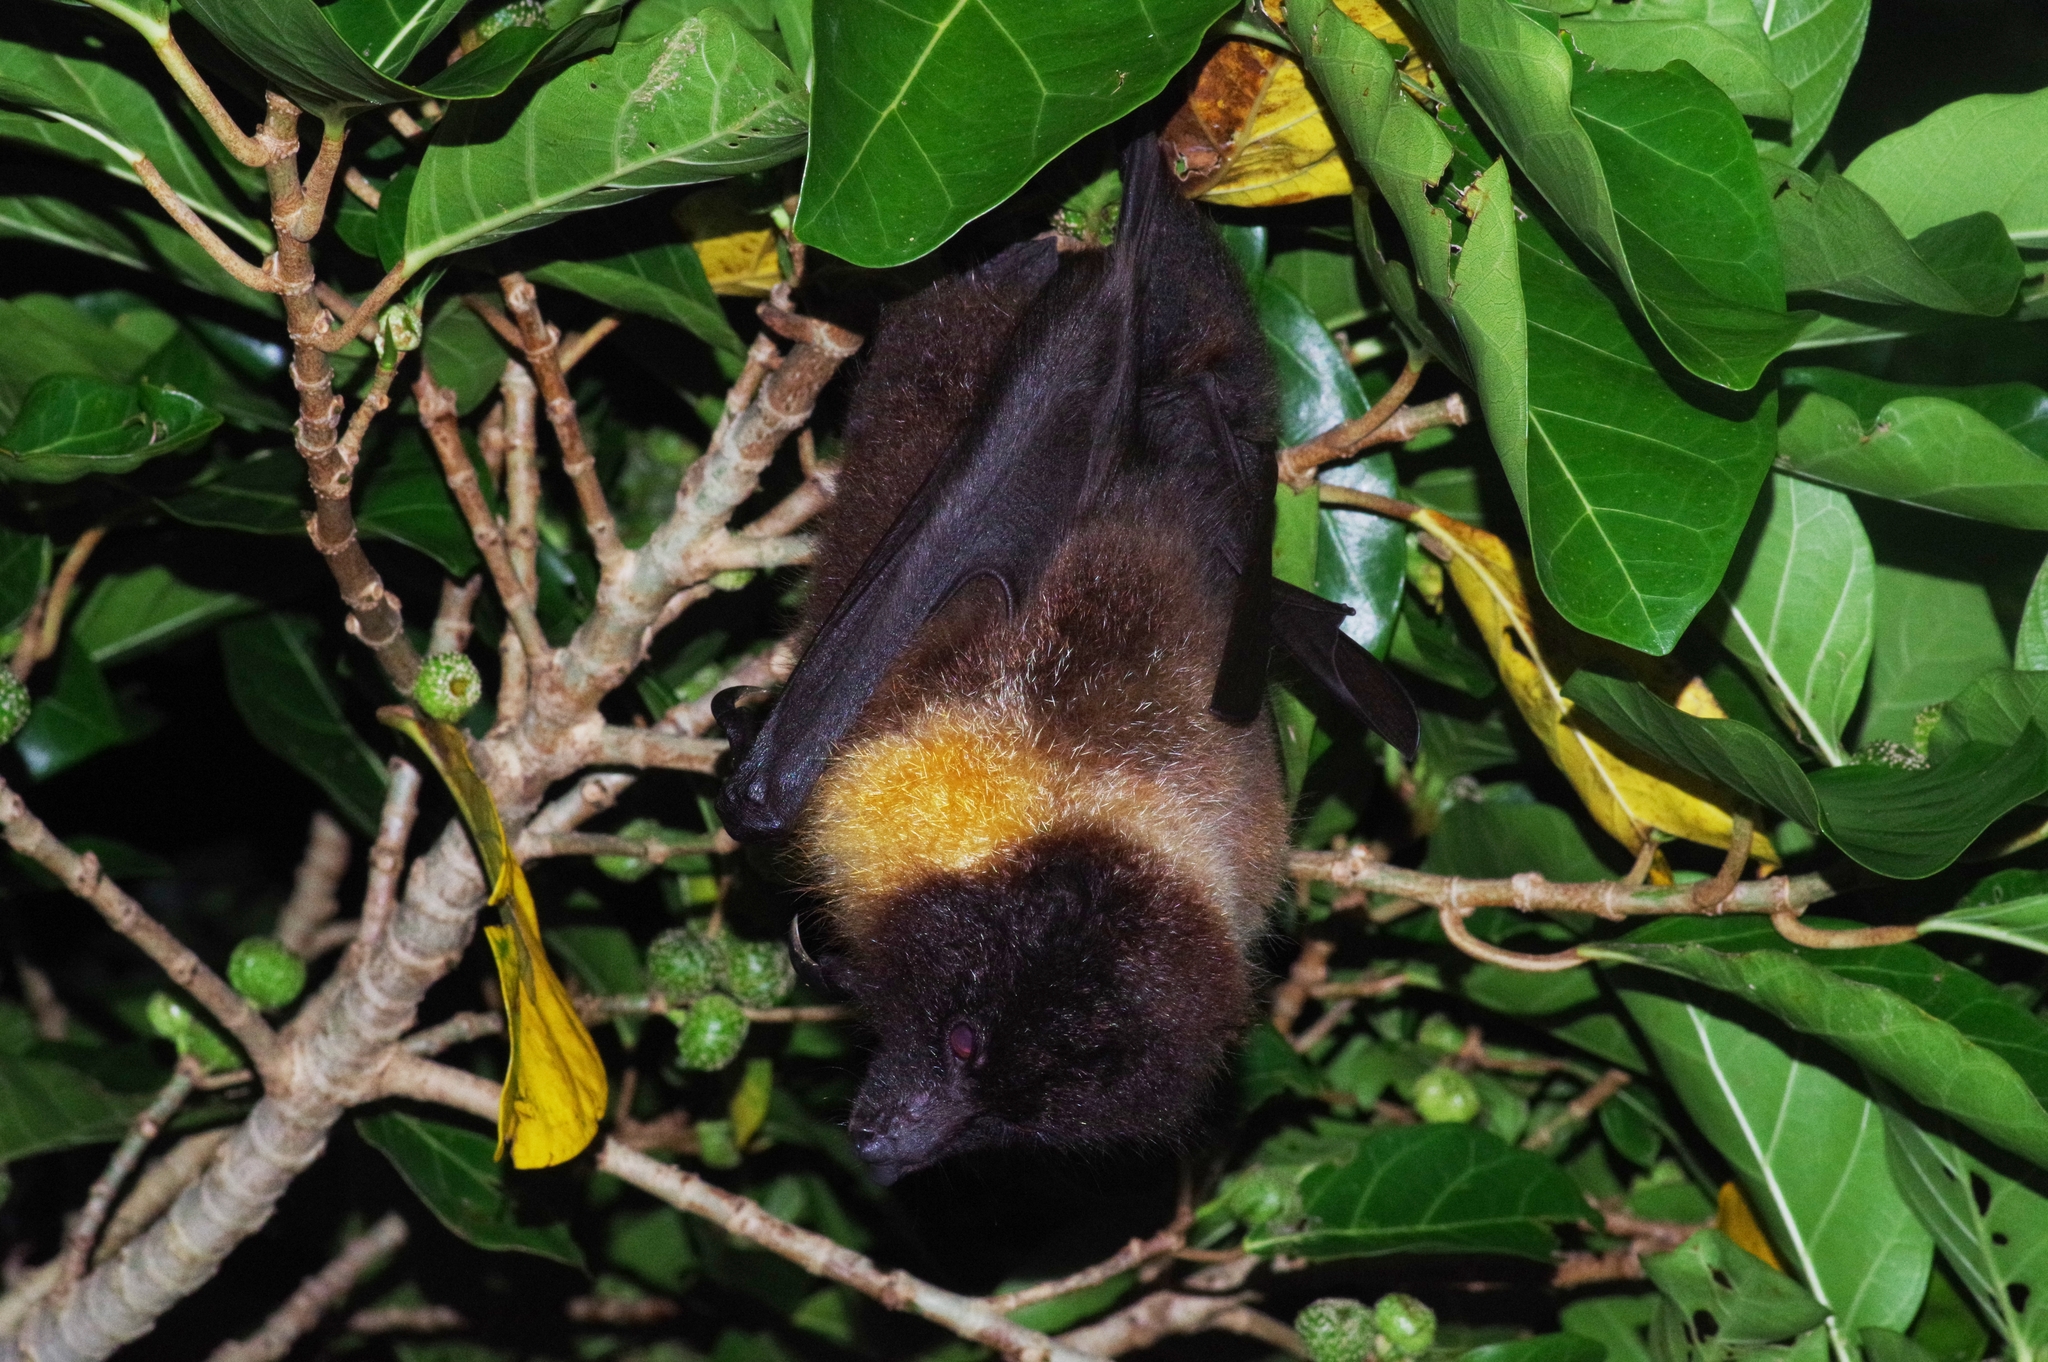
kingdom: Animalia
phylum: Chordata
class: Mammalia
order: Chiroptera
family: Pteropodidae
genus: Pteropus
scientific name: Pteropus dasymallus
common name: Ryukyu flying fox
